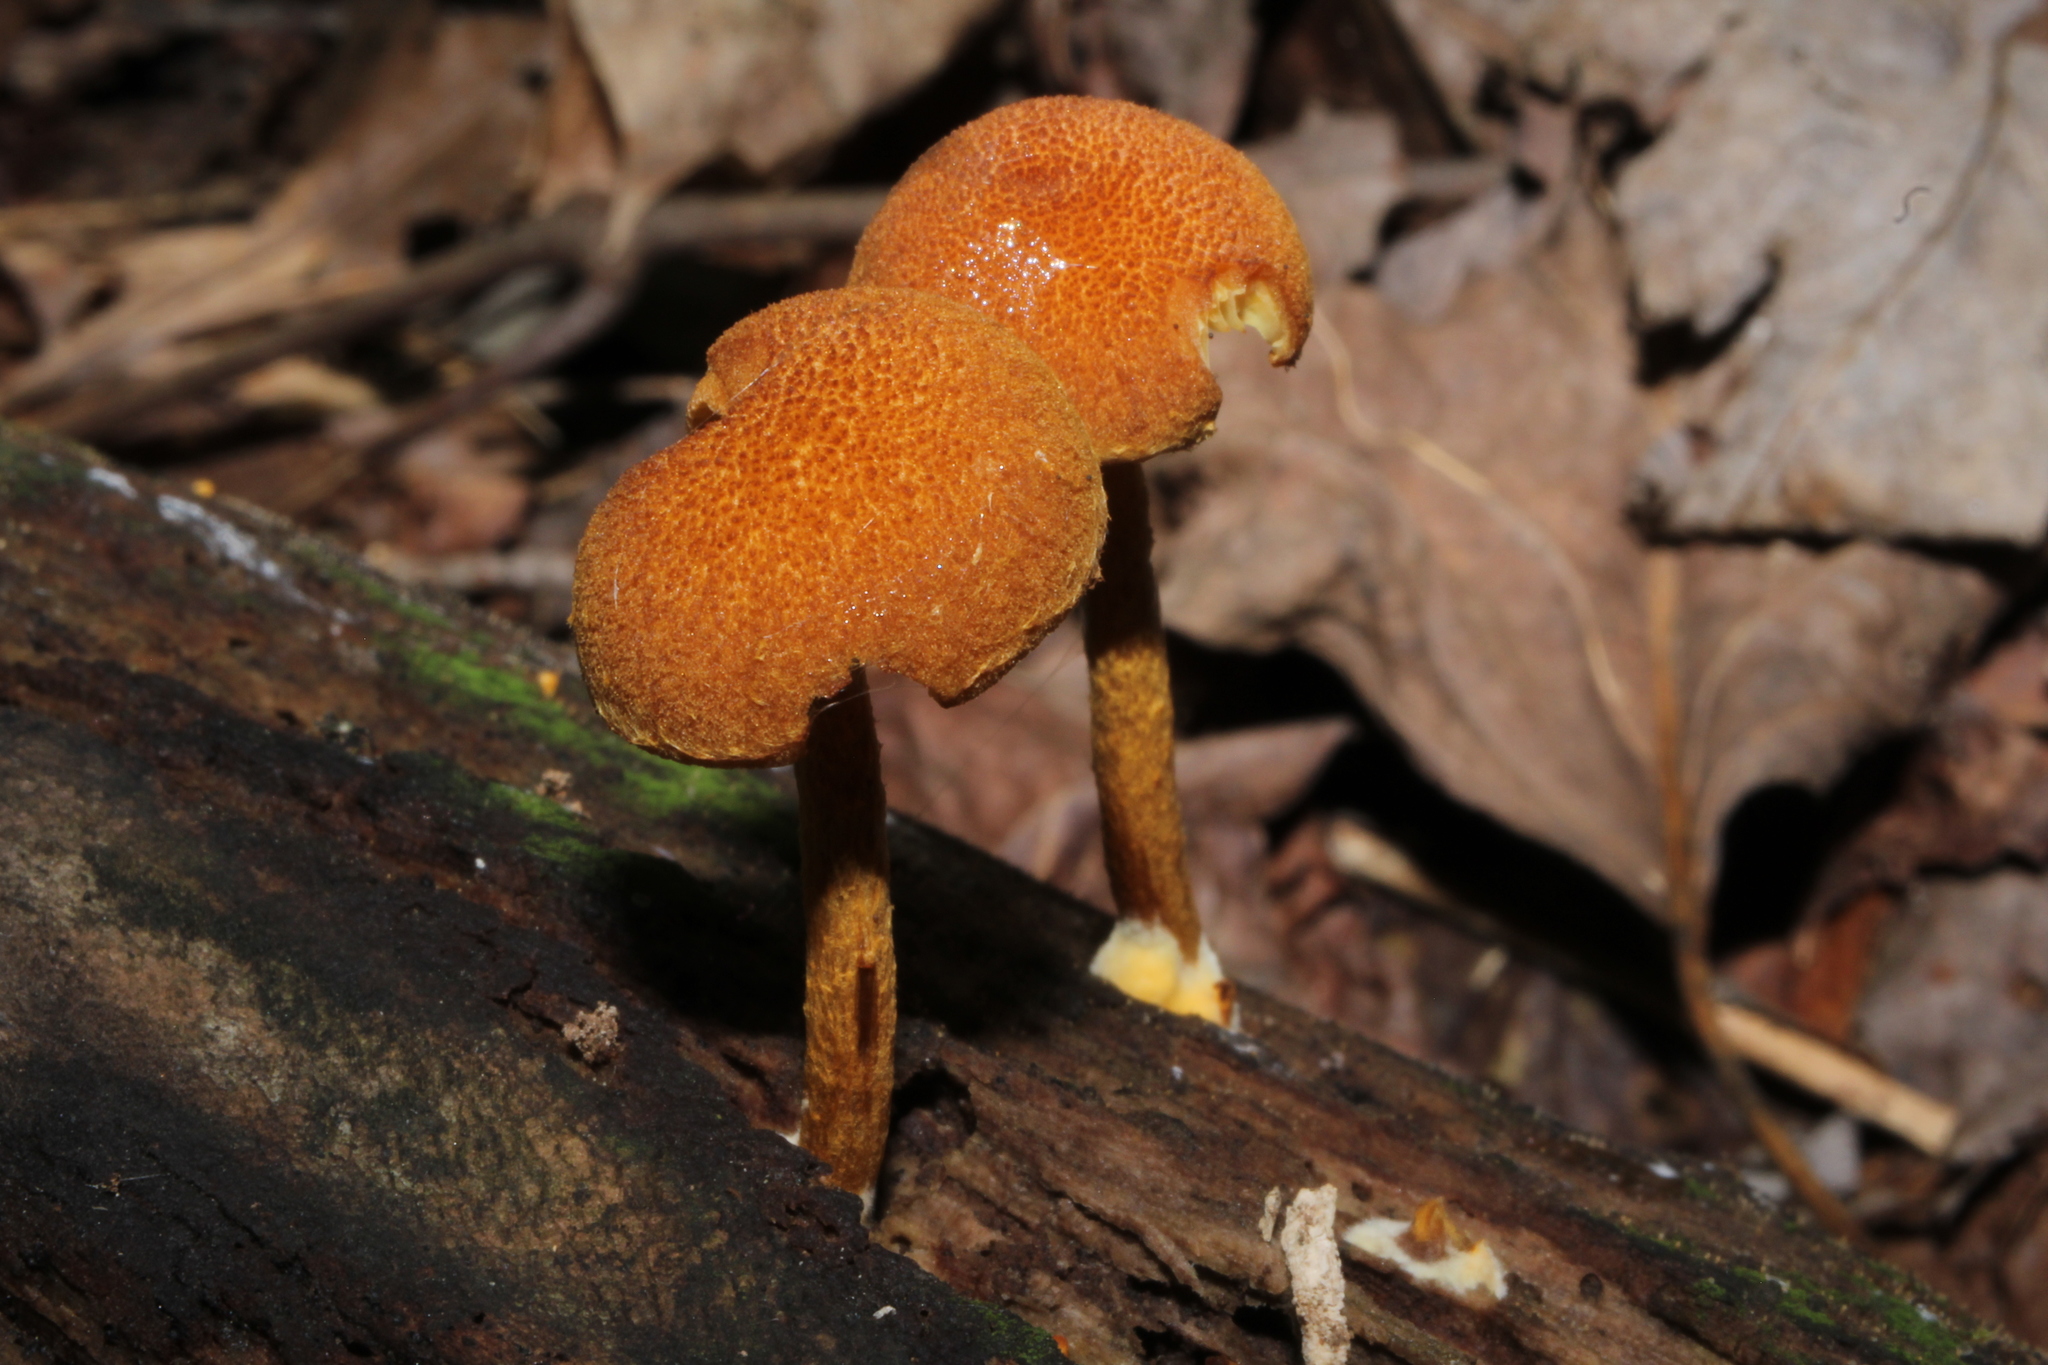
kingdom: Fungi
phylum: Basidiomycota
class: Agaricomycetes
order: Agaricales
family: Strophariaceae
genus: Pholiota
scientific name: Pholiota granulosa
